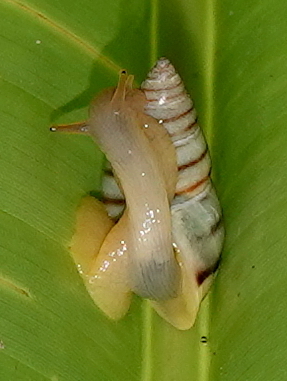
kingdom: Animalia
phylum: Mollusca
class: Gastropoda
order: Stylommatophora
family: Bulimulidae
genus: Drymaeus
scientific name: Drymaeus
